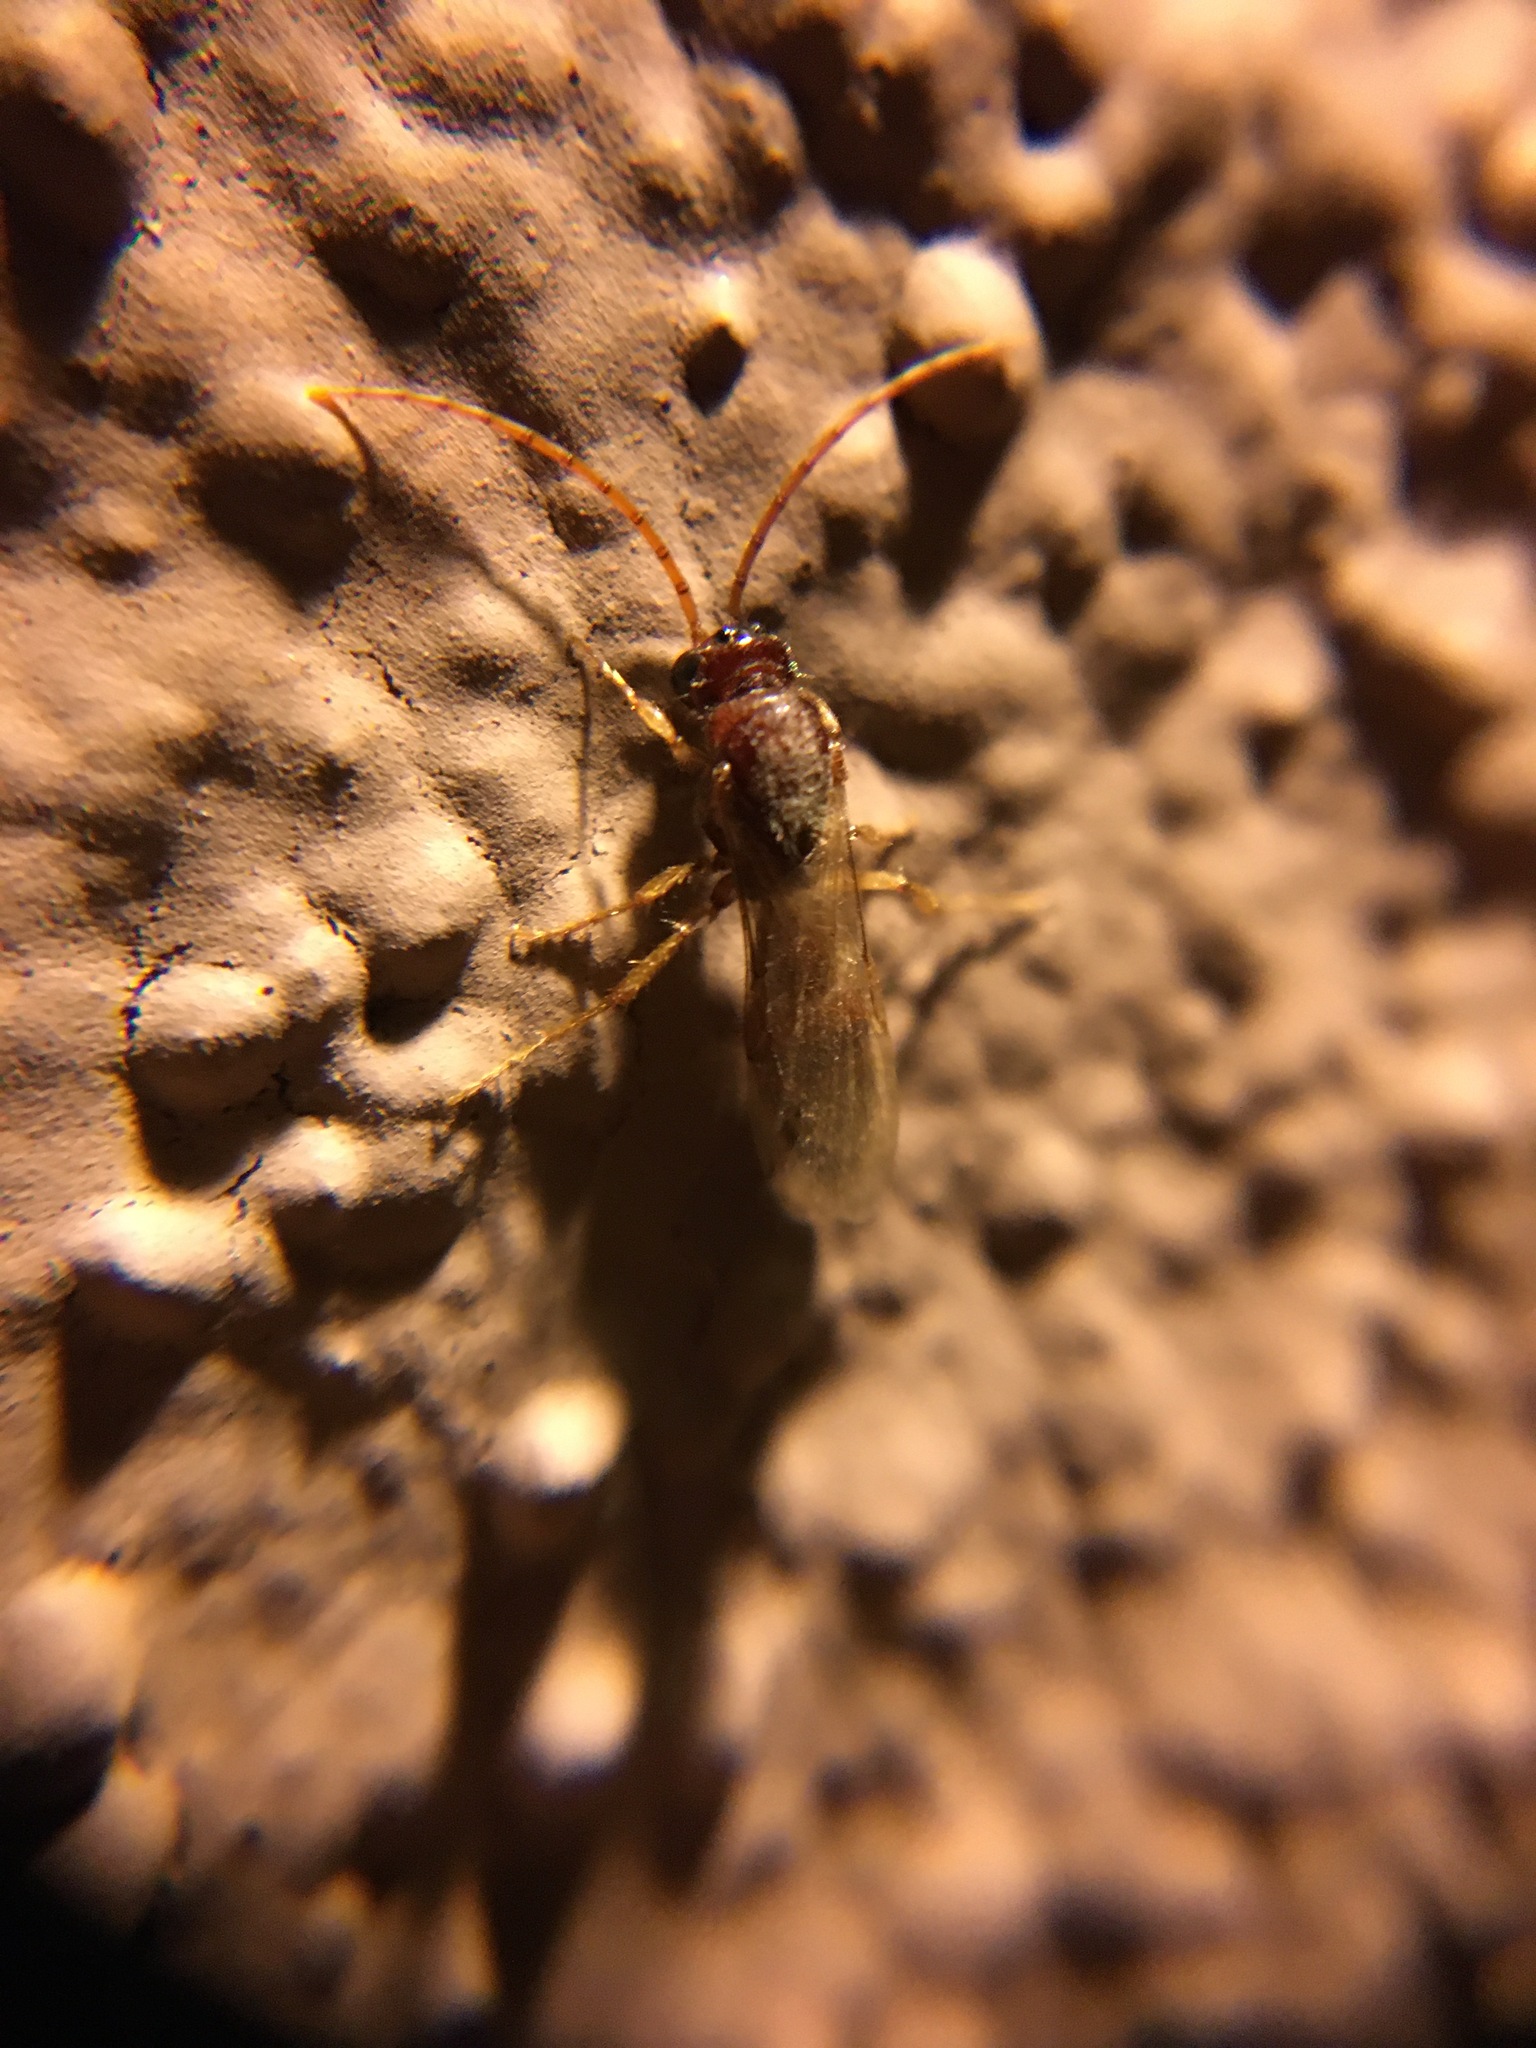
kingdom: Animalia
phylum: Arthropoda
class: Insecta
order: Hymenoptera
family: Tiphiidae
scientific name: Tiphiidae
